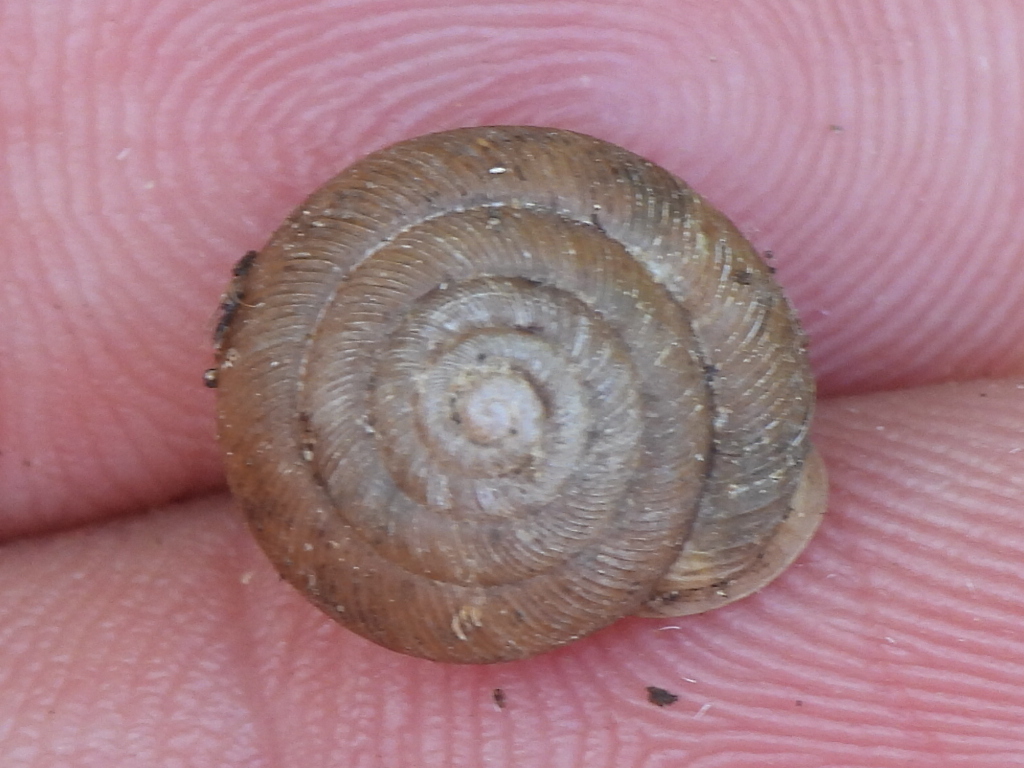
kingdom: Animalia
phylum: Mollusca
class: Gastropoda
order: Stylommatophora
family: Polygyridae
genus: Triodopsis
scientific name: Triodopsis hopetonensis
